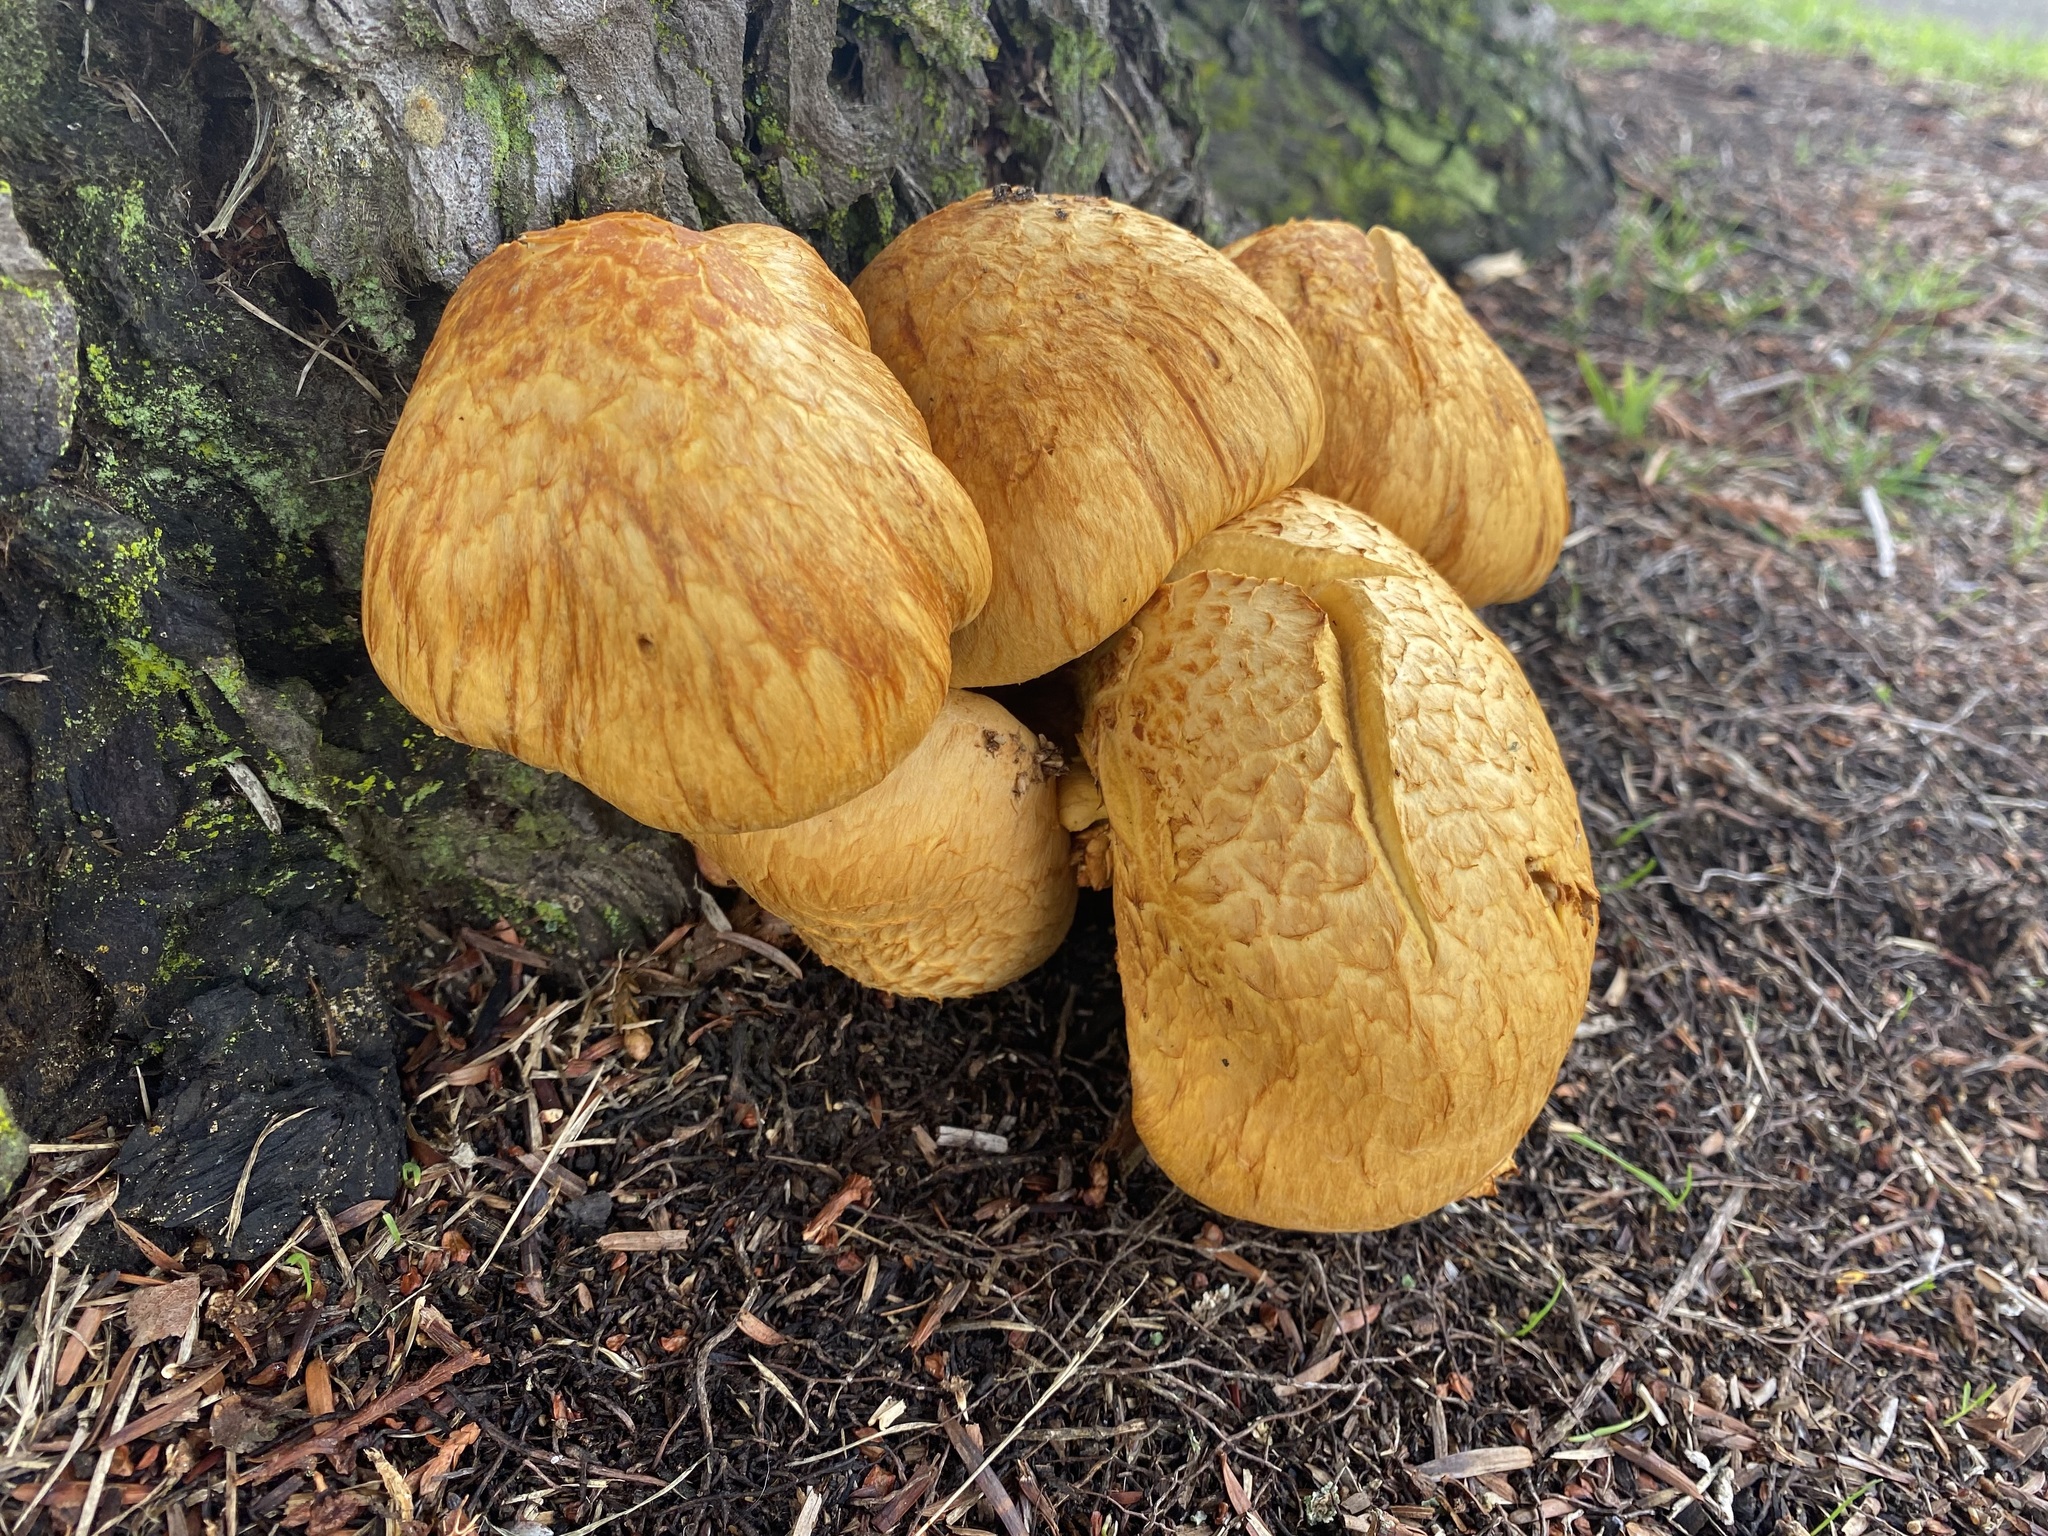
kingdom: Fungi
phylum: Basidiomycota
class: Agaricomycetes
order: Agaricales
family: Hymenogastraceae
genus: Gymnopilus
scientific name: Gymnopilus junonius
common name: Spectacular rustgill
